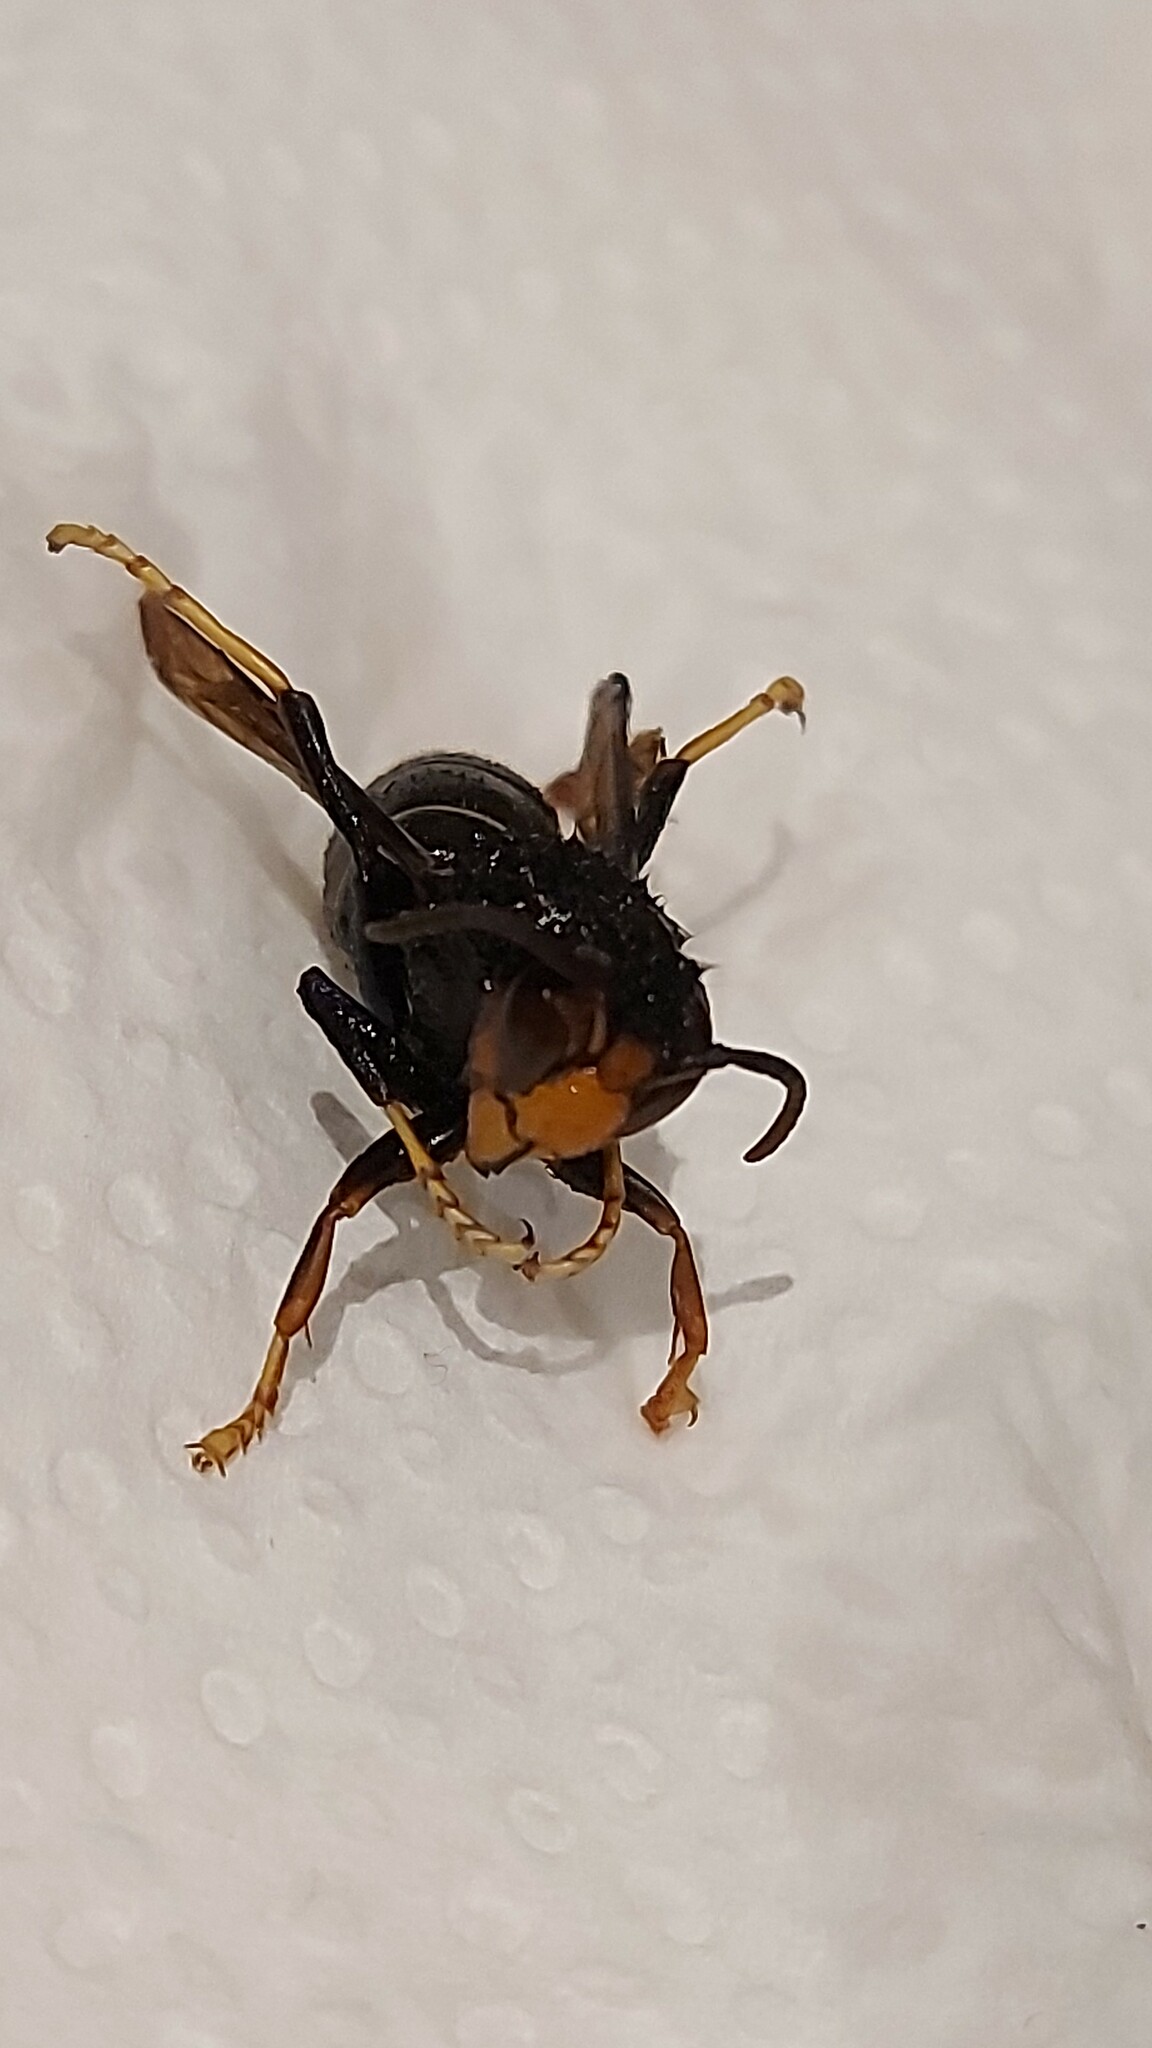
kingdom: Animalia
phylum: Arthropoda
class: Insecta
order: Hymenoptera
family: Vespidae
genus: Vespa
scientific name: Vespa velutina
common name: Asian hornet
